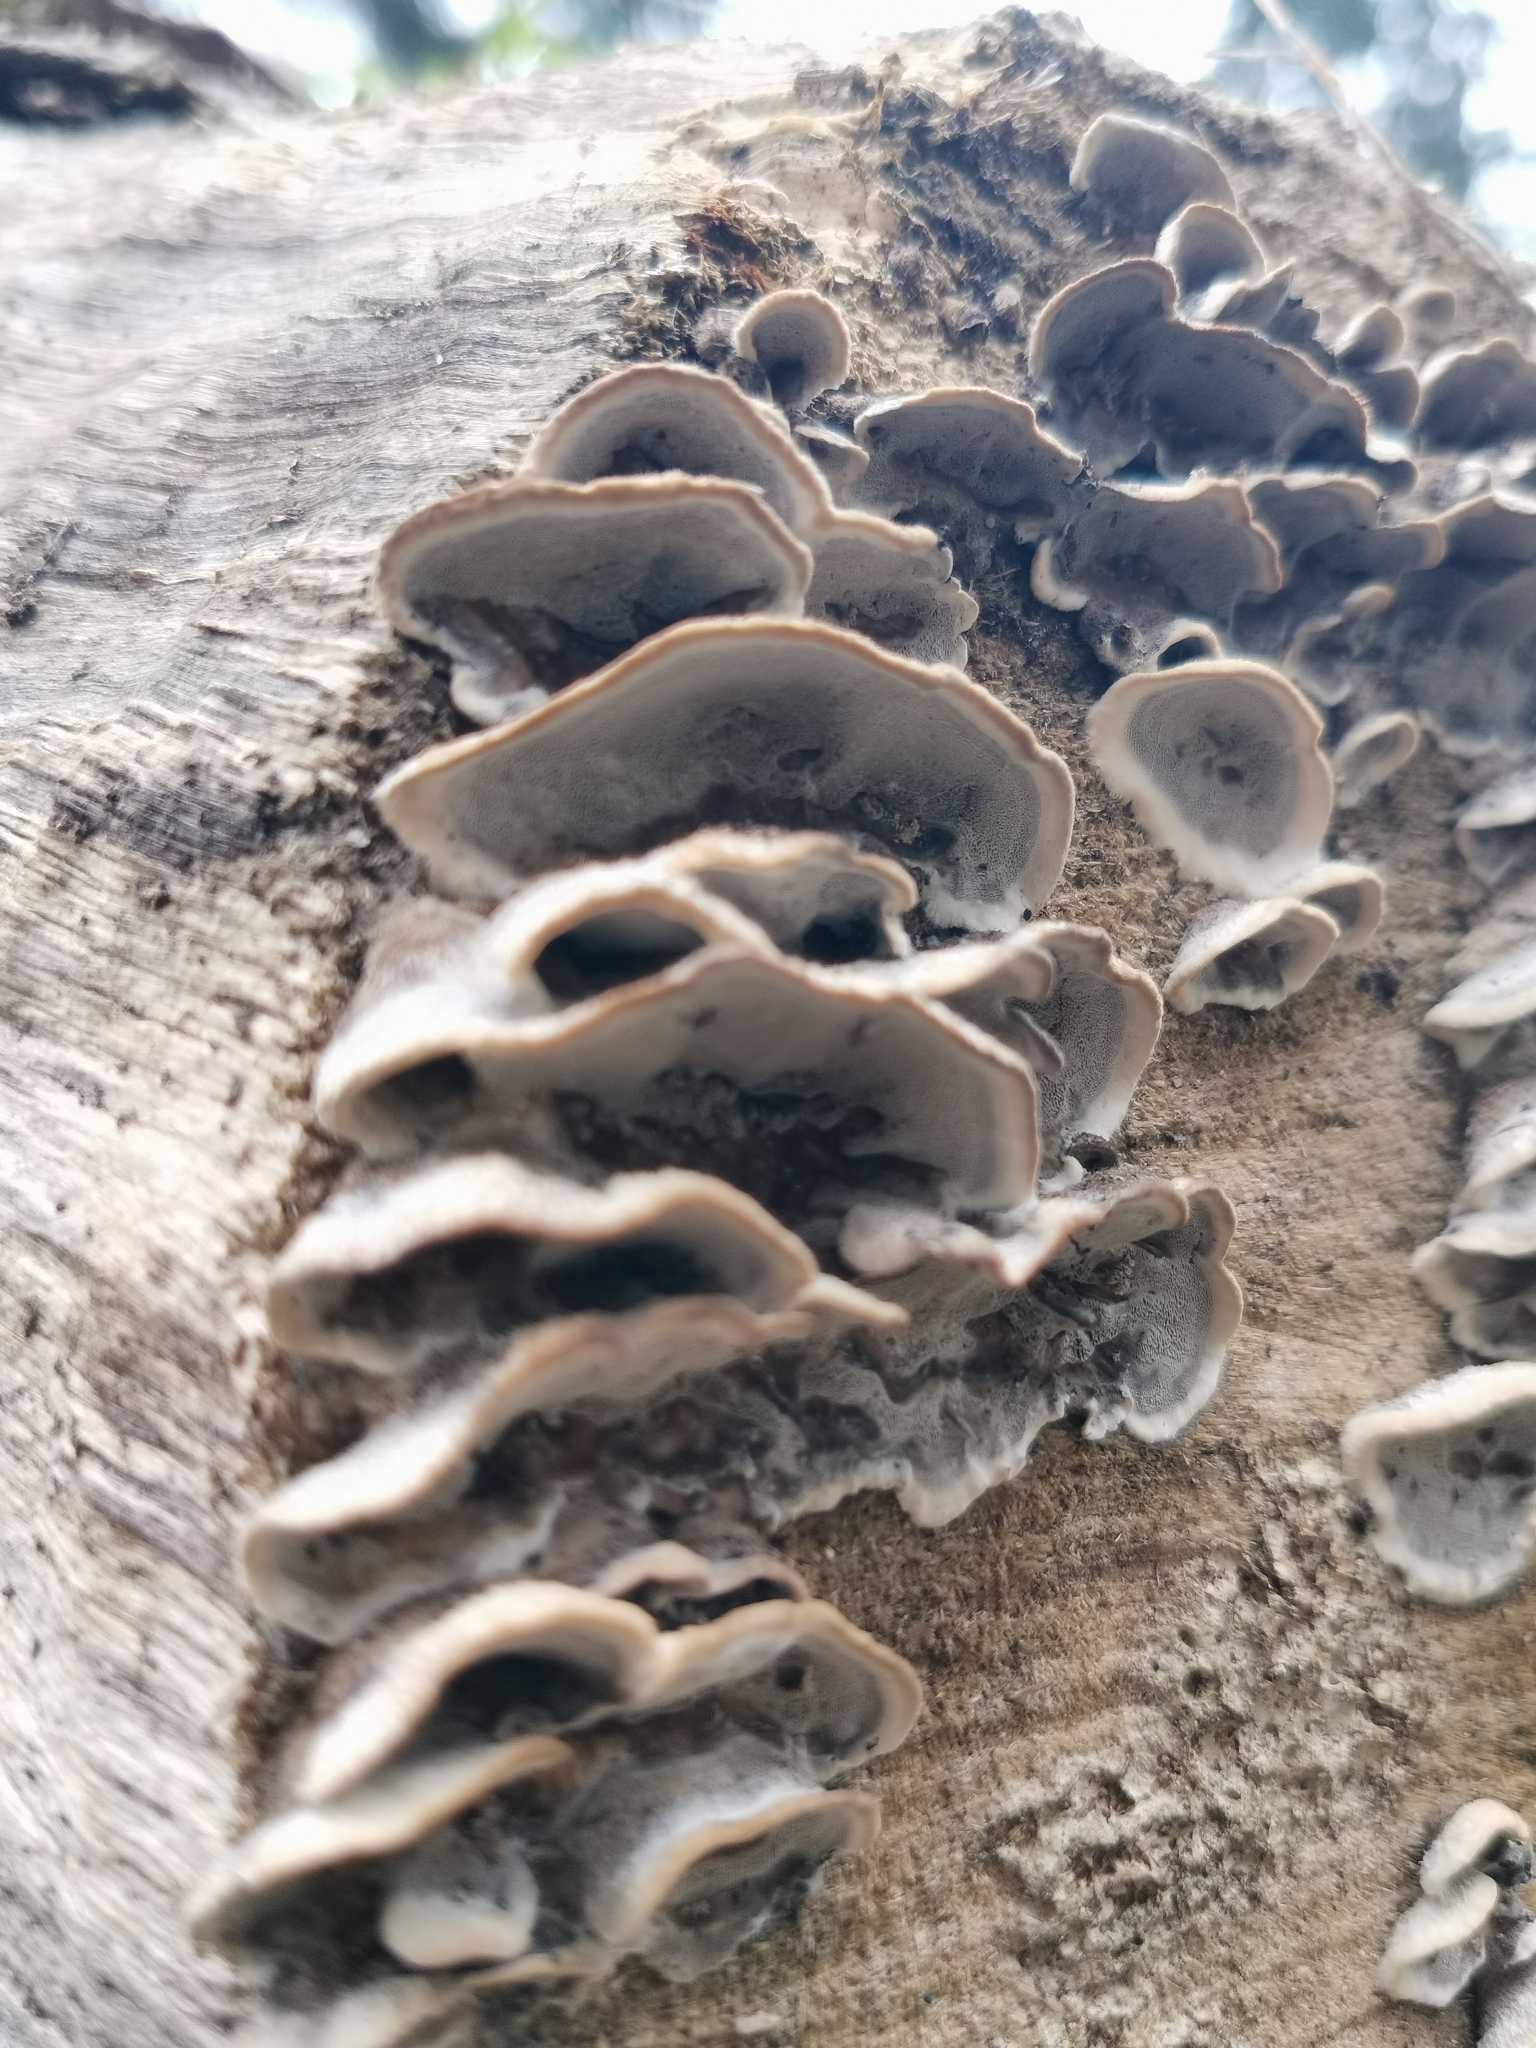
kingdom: Fungi
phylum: Basidiomycota
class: Agaricomycetes
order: Polyporales
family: Phanerochaetaceae
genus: Bjerkandera
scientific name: Bjerkandera adusta
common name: Smoky bracket
